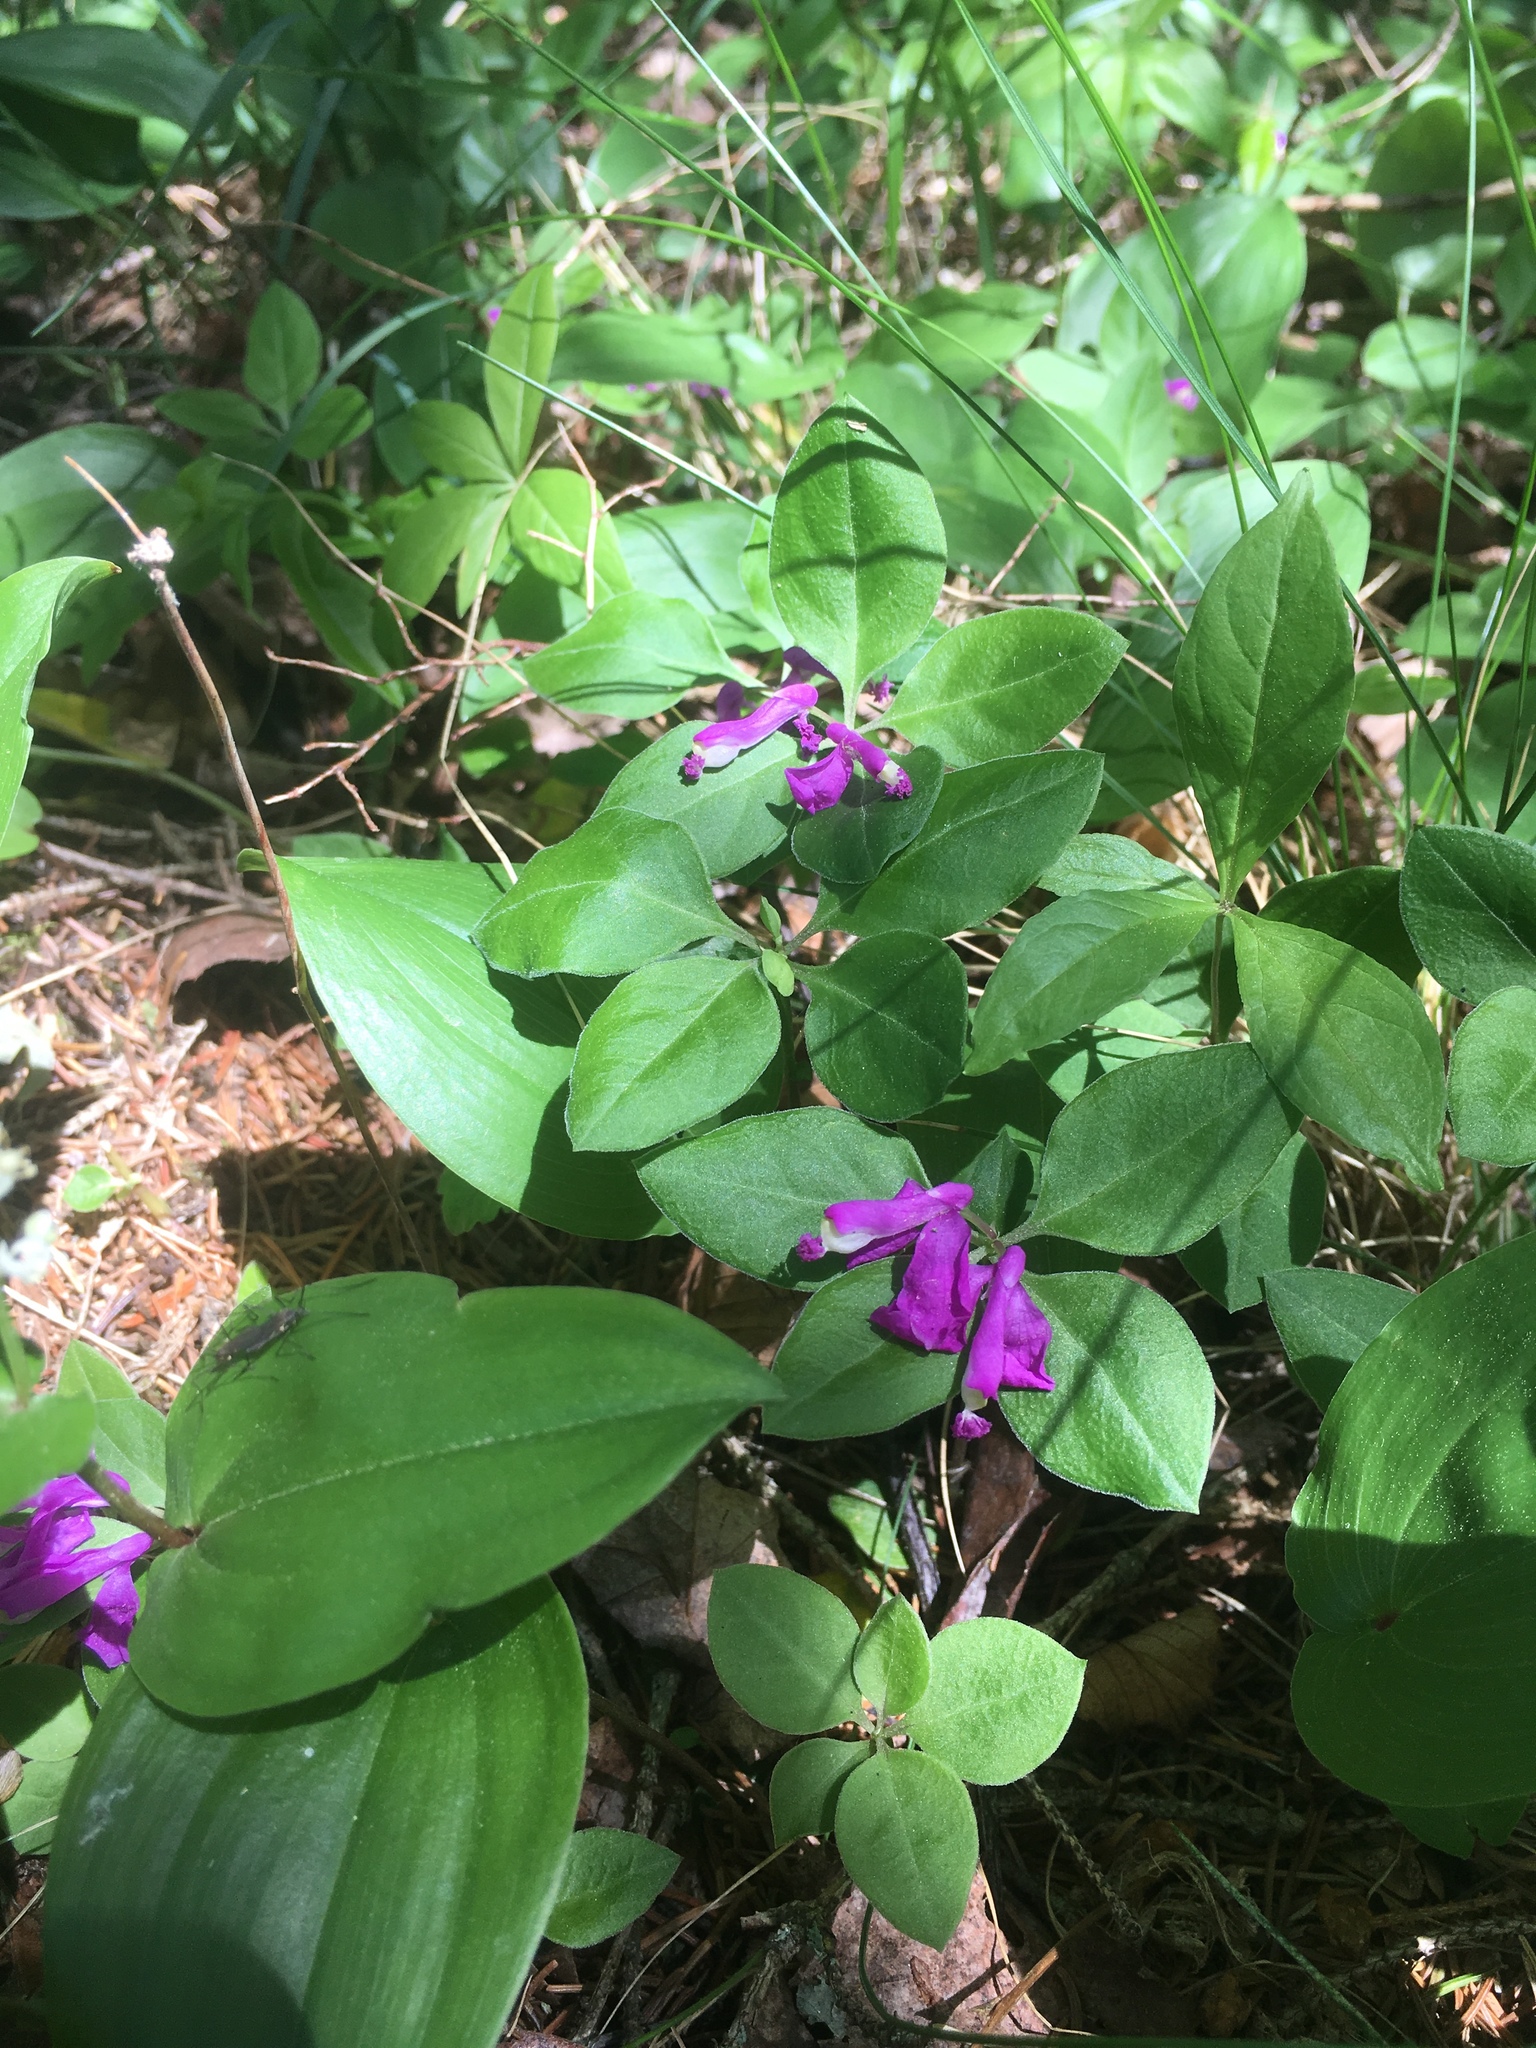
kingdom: Plantae
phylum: Tracheophyta
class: Magnoliopsida
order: Fabales
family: Polygalaceae
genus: Polygaloides
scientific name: Polygaloides paucifolia
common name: Bird-on-the-wing
